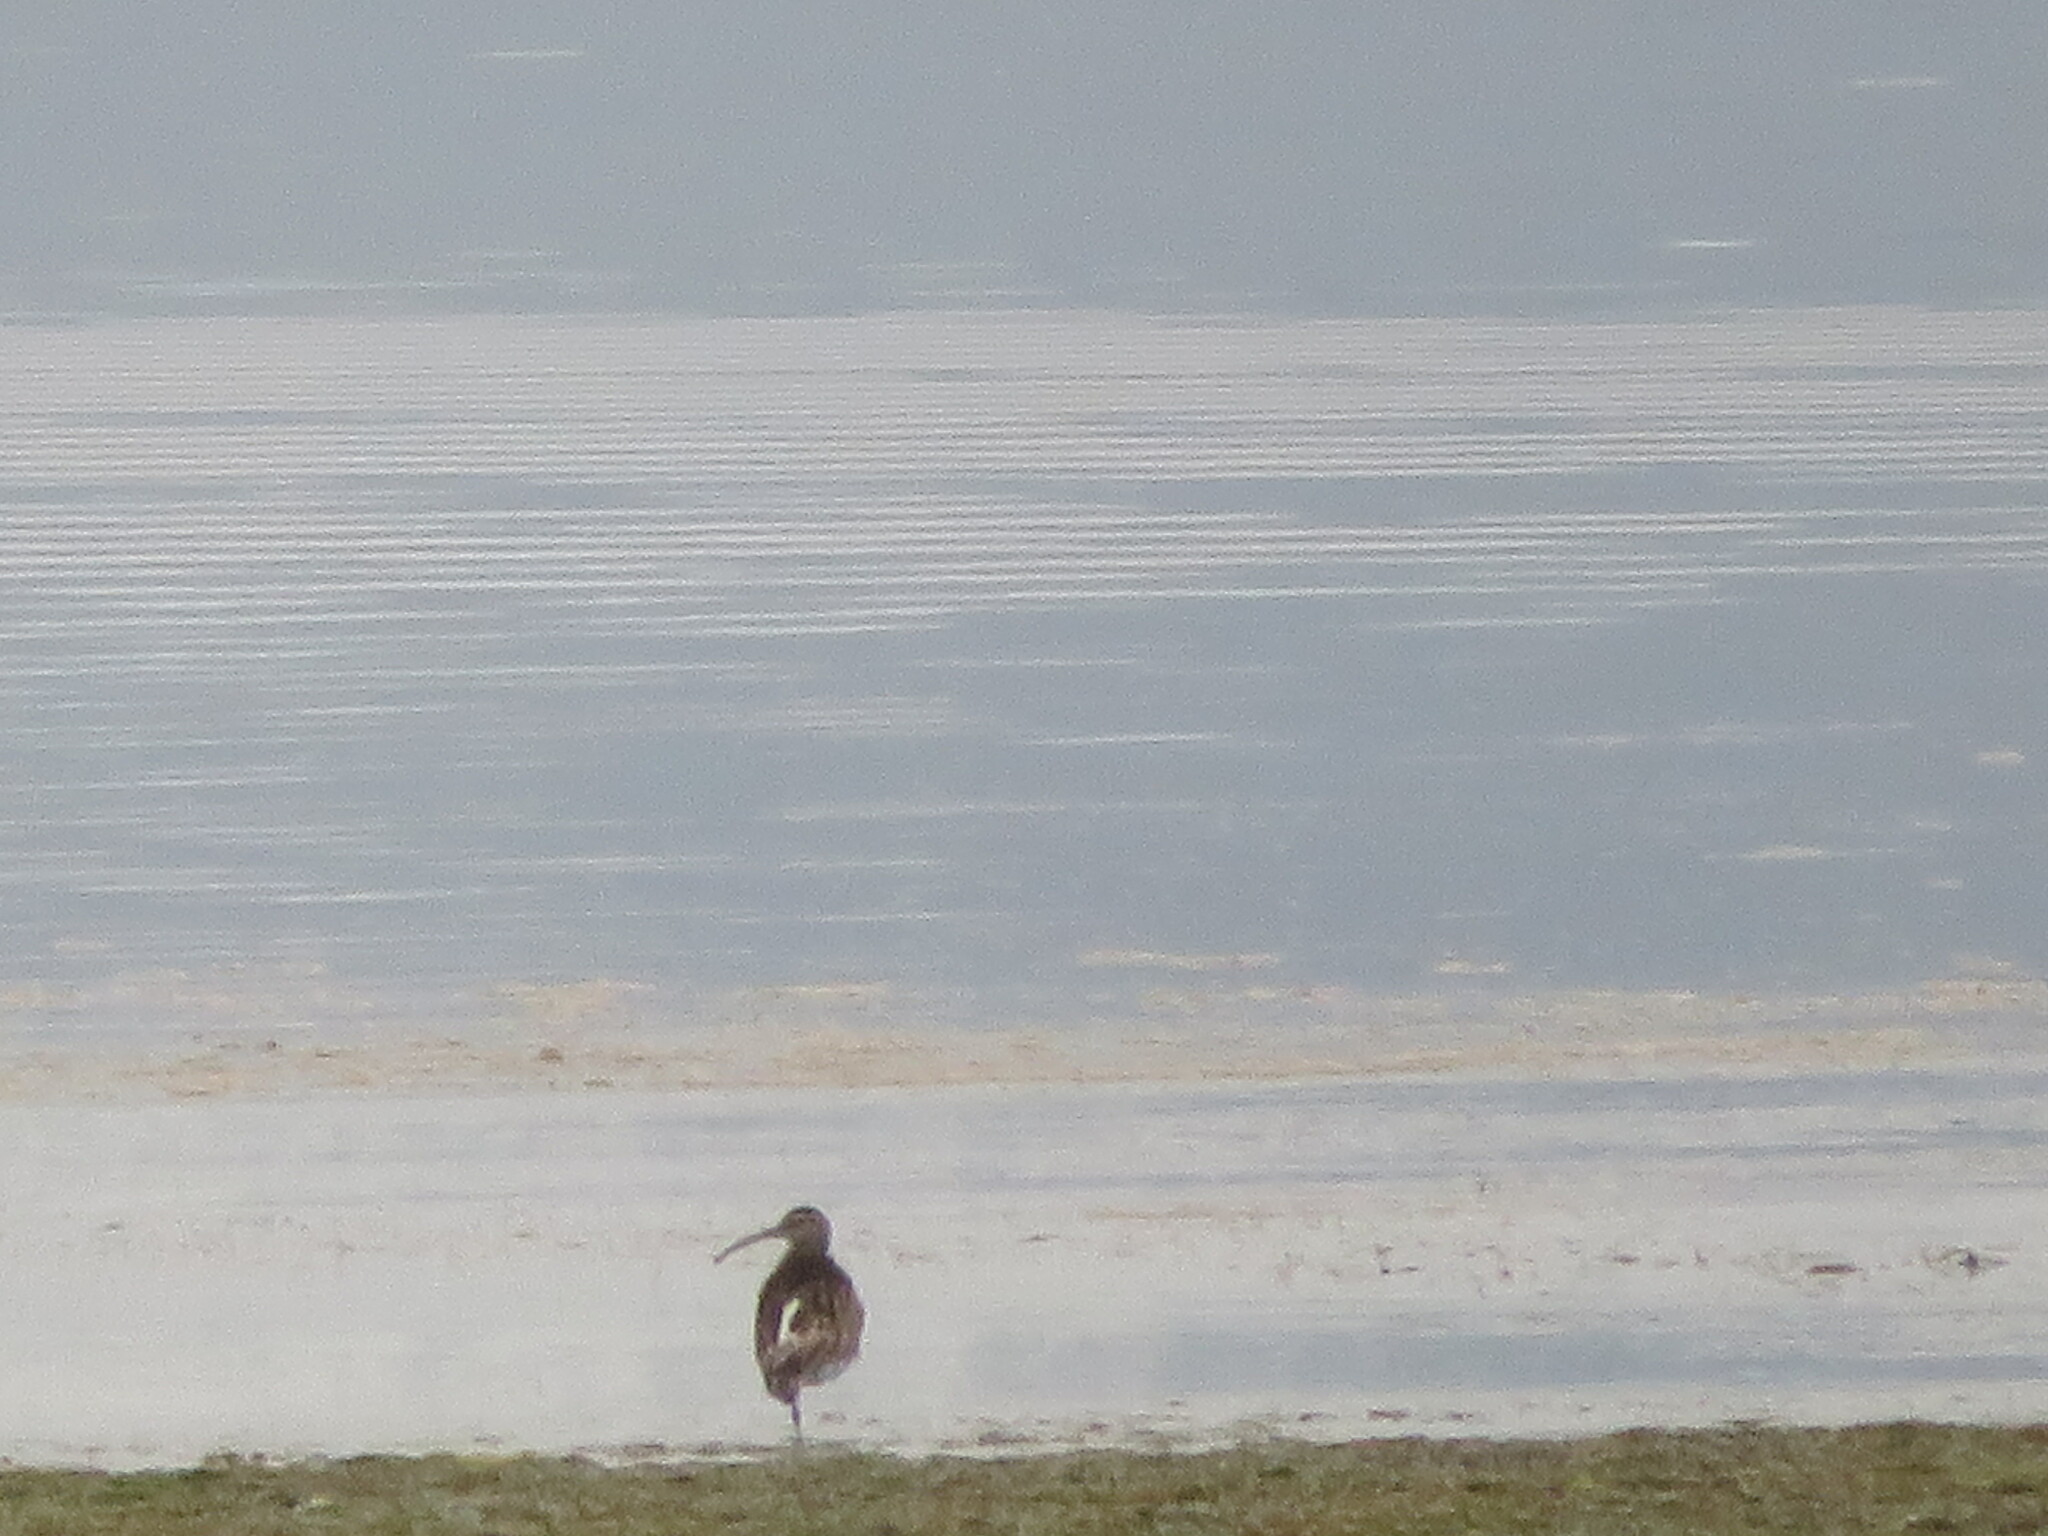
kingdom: Animalia
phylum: Chordata
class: Aves
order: Charadriiformes
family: Scolopacidae
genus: Numenius
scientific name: Numenius phaeopus
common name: Whimbrel
